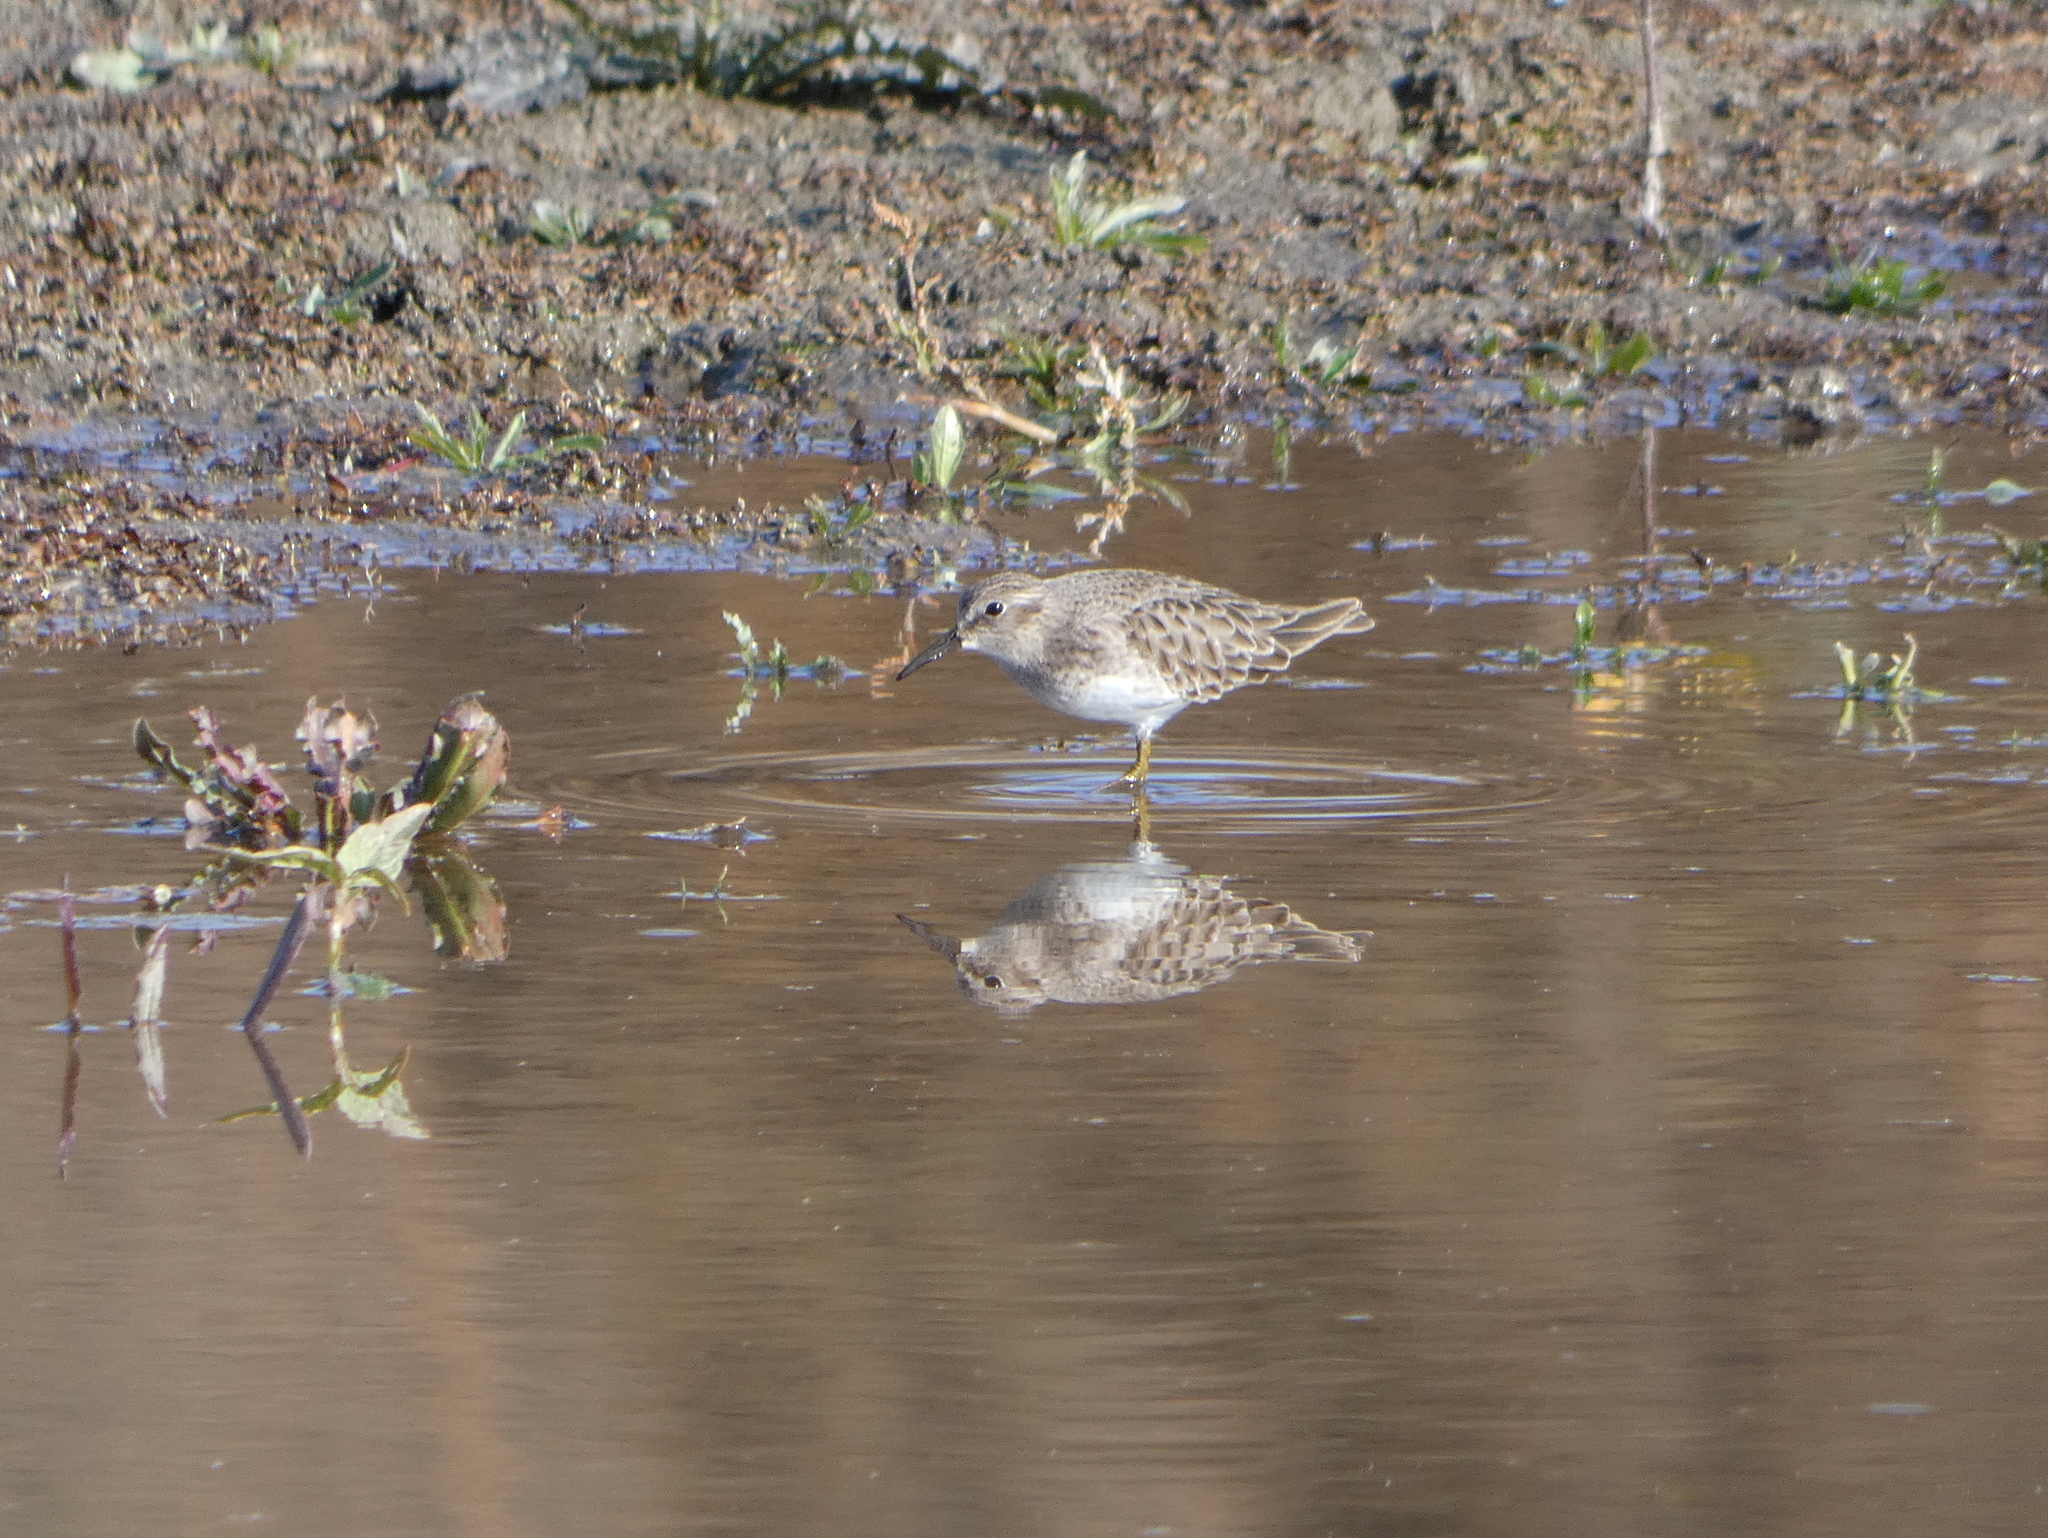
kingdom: Animalia
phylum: Chordata
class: Aves
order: Charadriiformes
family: Scolopacidae
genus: Calidris
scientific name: Calidris minutilla
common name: Least sandpiper
